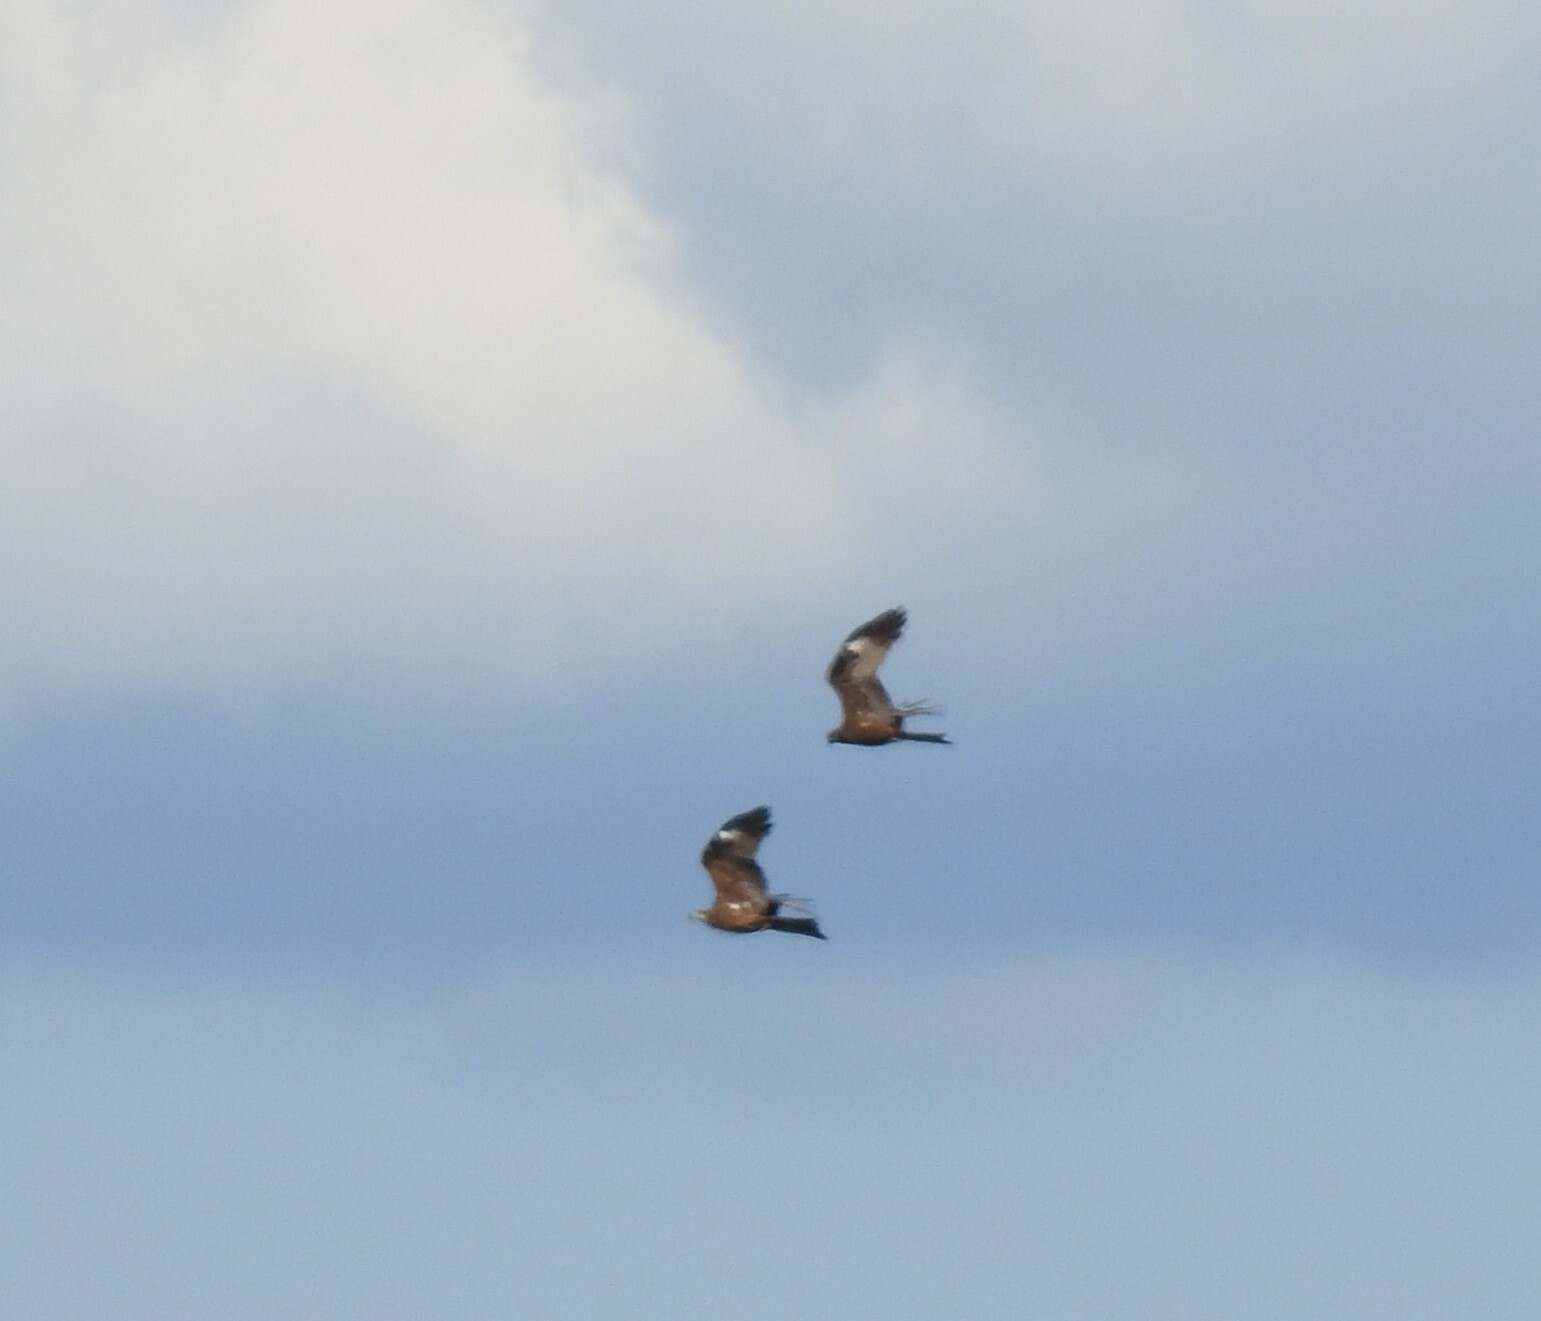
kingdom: Animalia
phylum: Chordata
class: Aves
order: Accipitriformes
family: Accipitridae
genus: Milvus
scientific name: Milvus migrans
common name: Black kite
